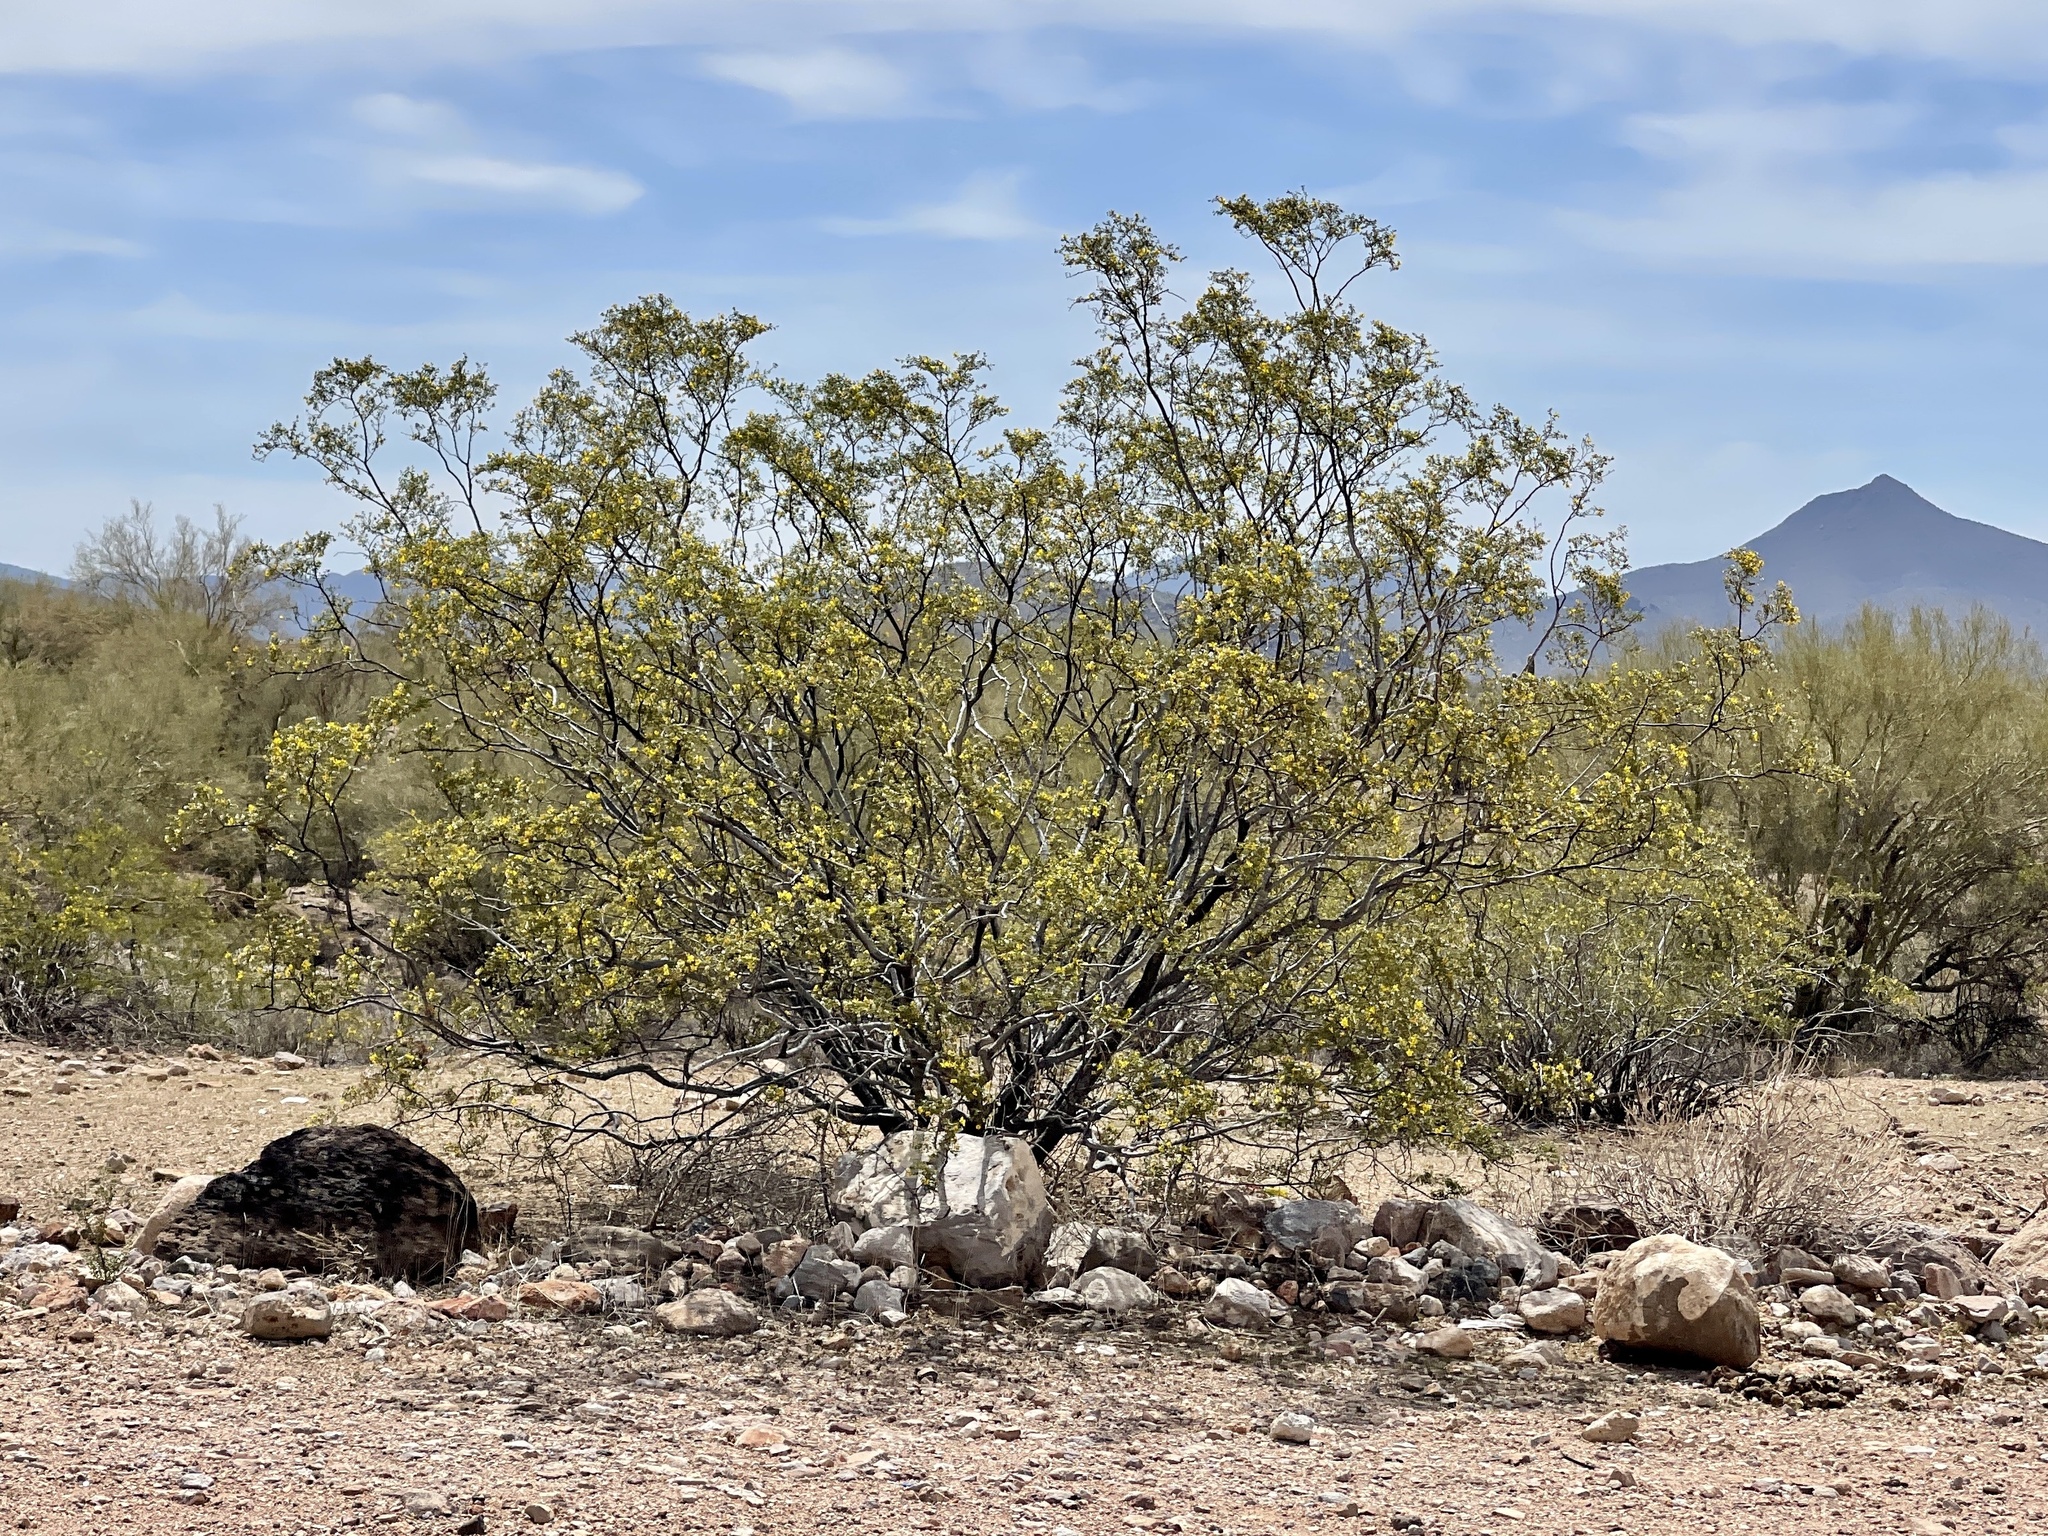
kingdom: Plantae
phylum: Tracheophyta
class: Magnoliopsida
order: Zygophyllales
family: Zygophyllaceae
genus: Larrea
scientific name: Larrea tridentata
